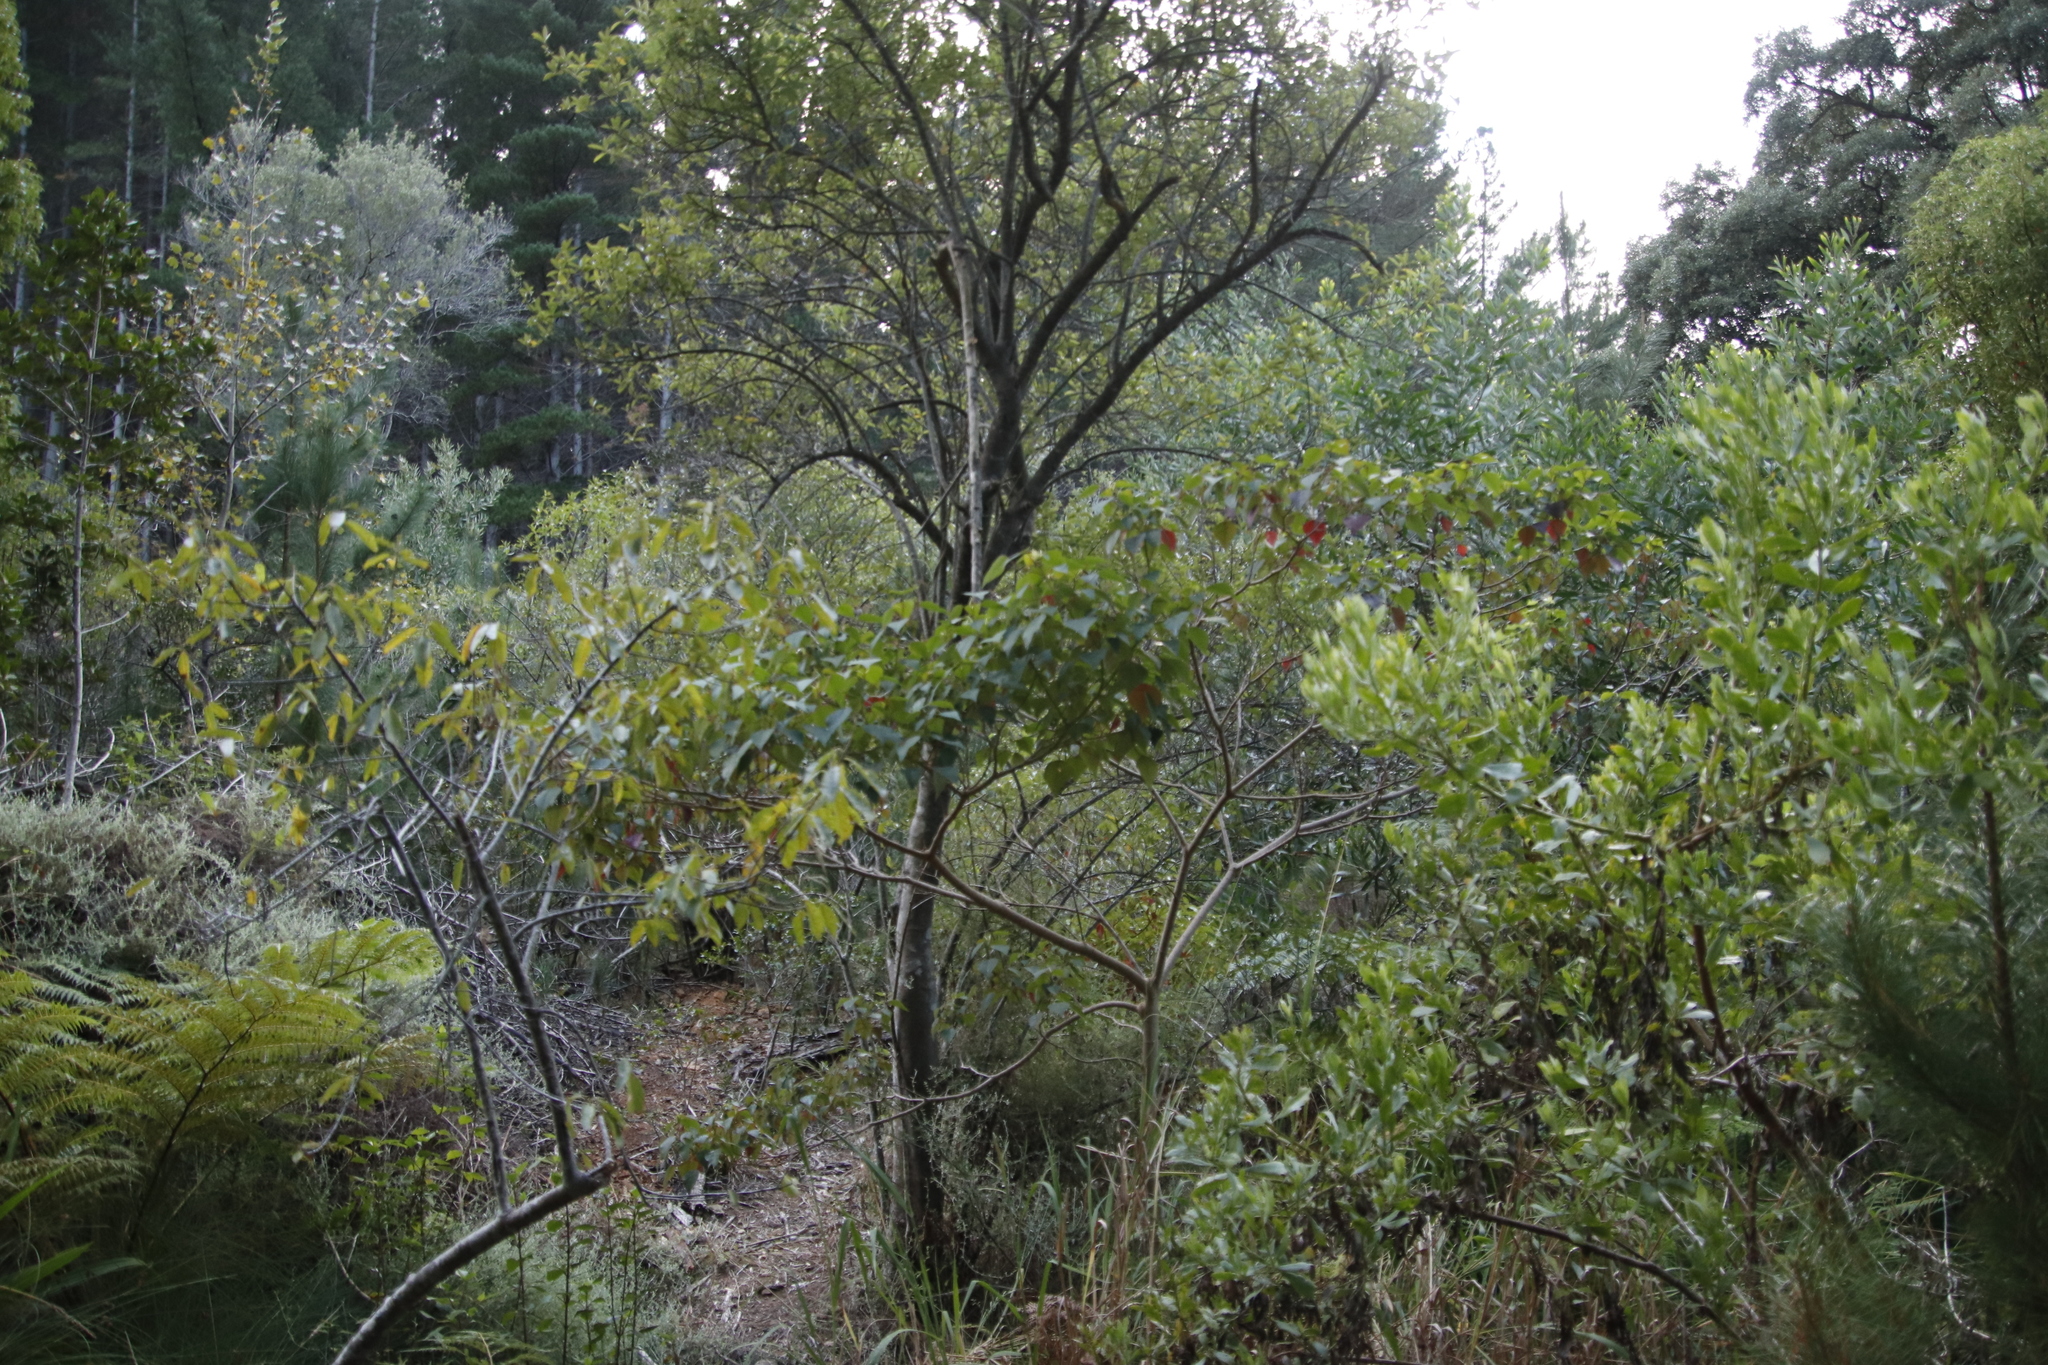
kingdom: Plantae
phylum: Tracheophyta
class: Magnoliopsida
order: Malpighiales
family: Euphorbiaceae
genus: Homalanthus
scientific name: Homalanthus populifolius
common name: Queensland poplar
